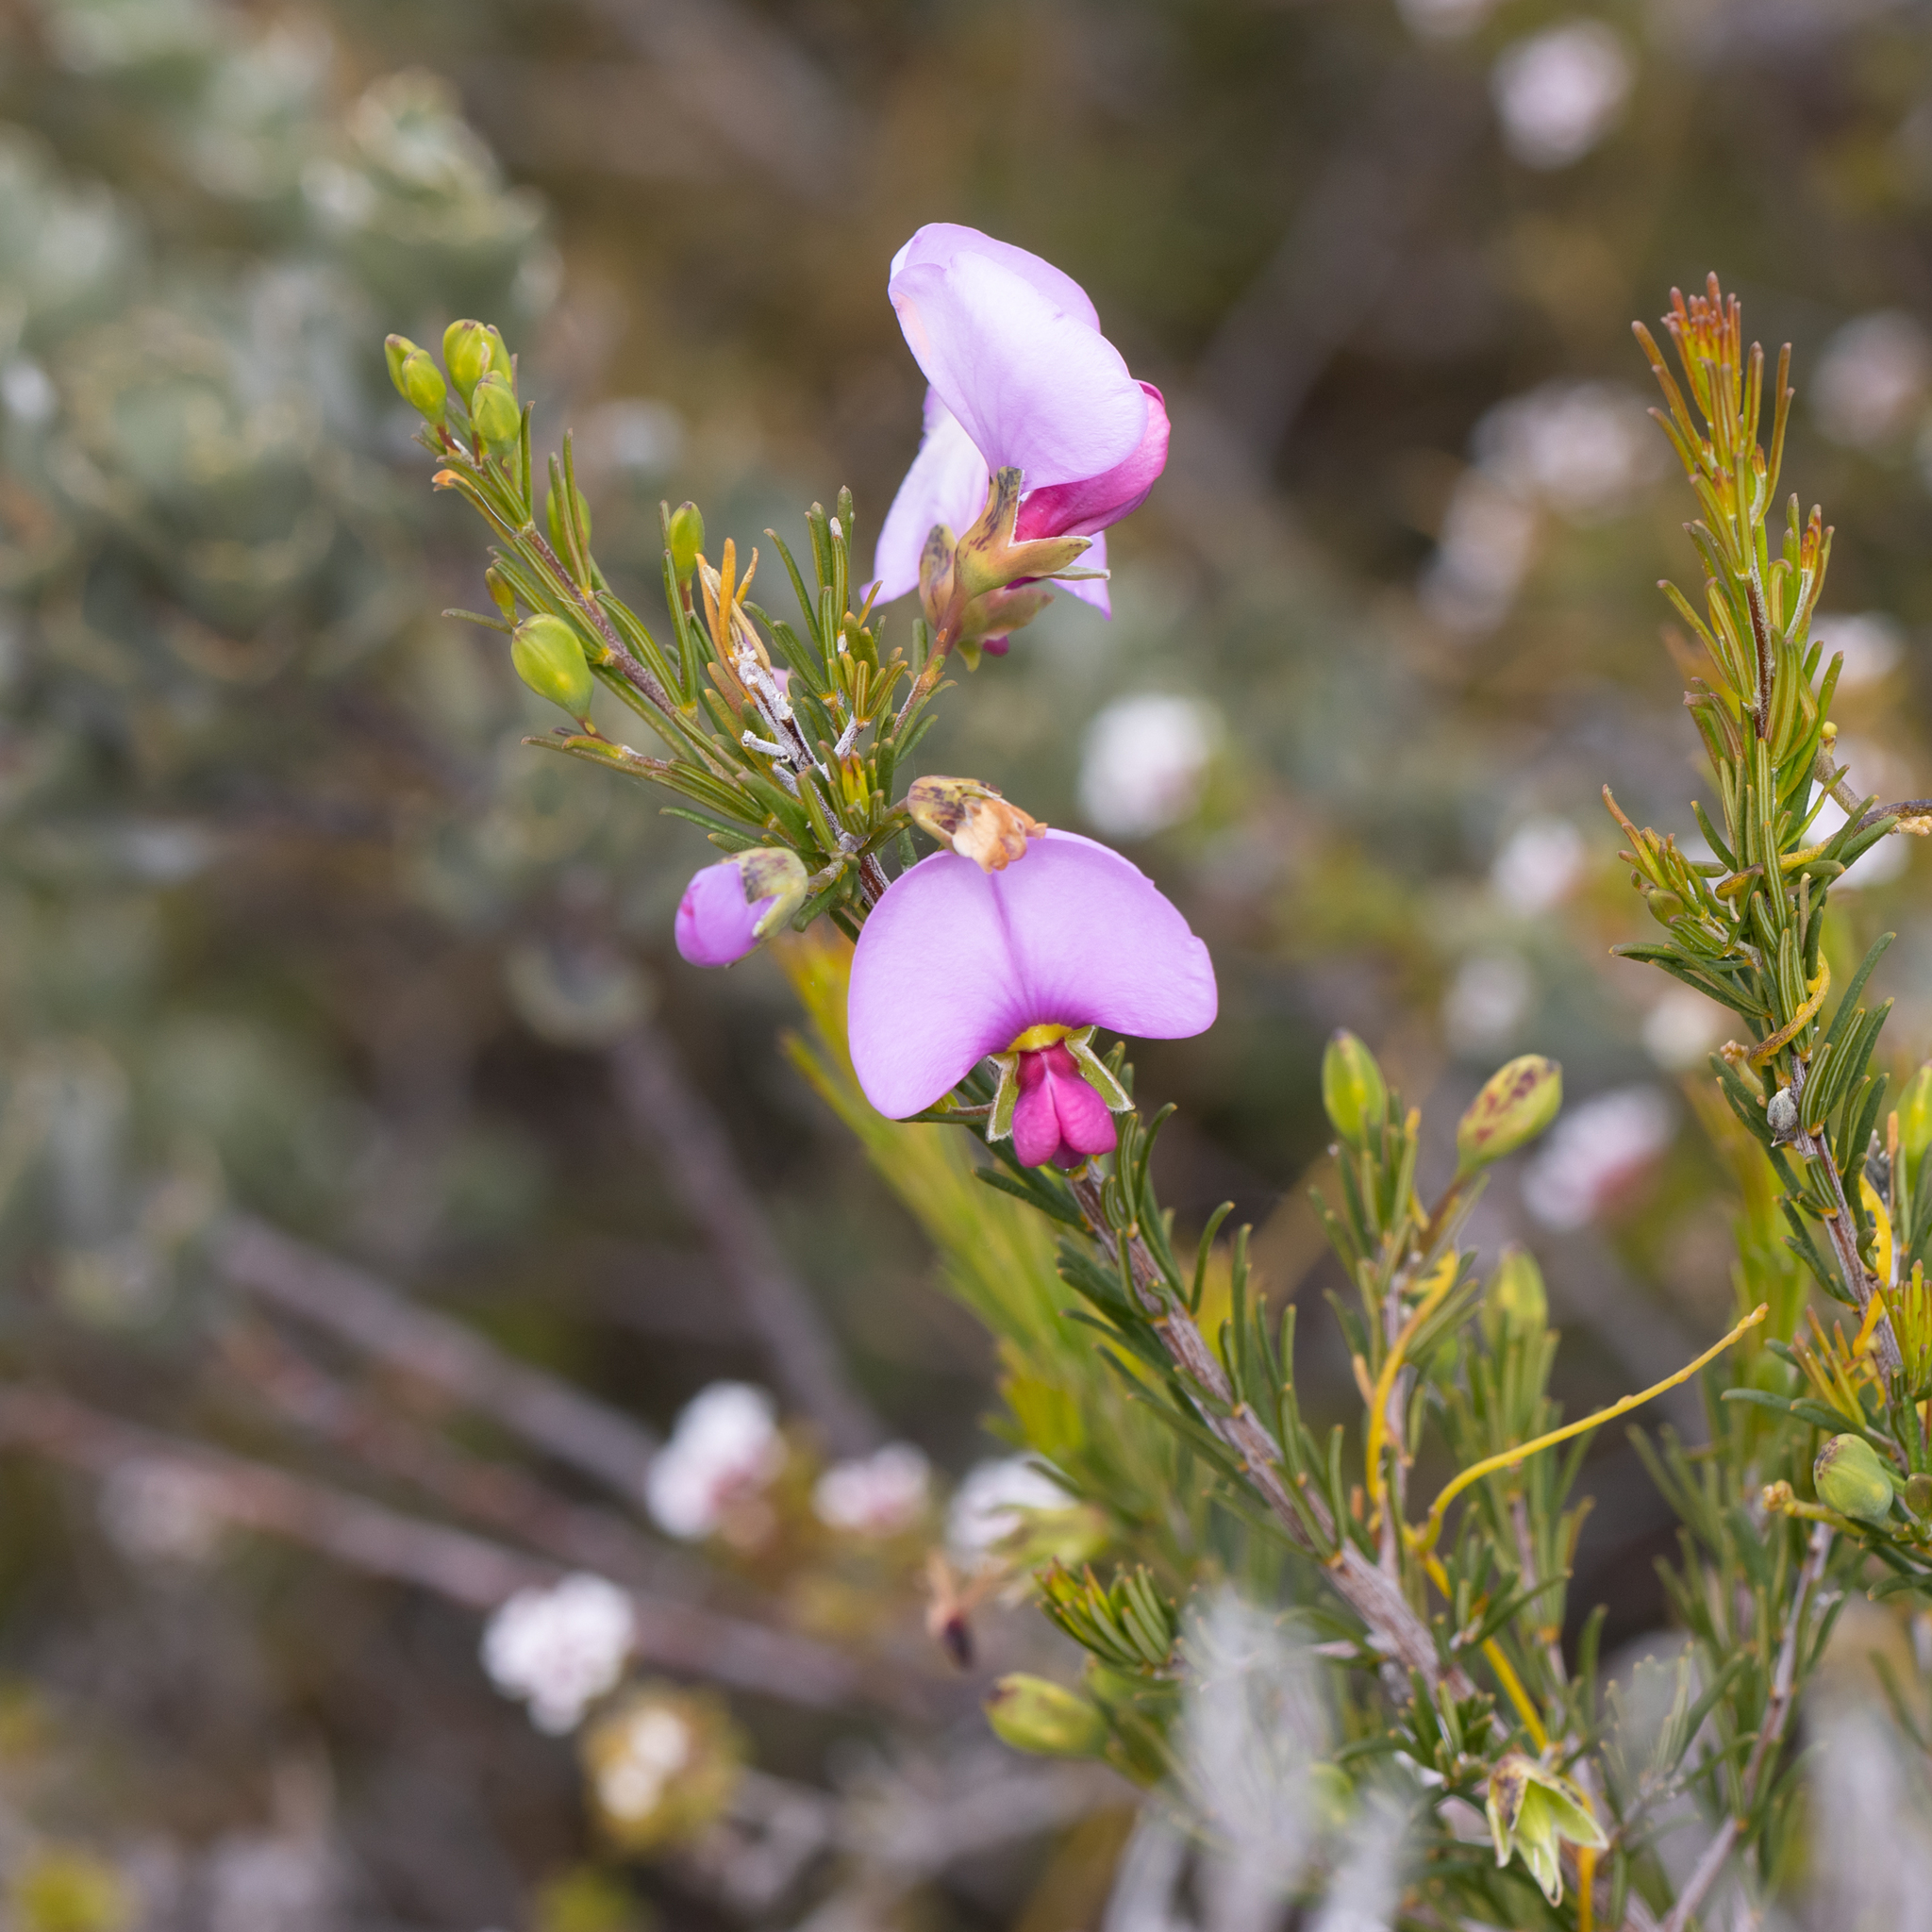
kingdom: Plantae
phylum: Tracheophyta
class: Magnoliopsida
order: Fabales
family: Fabaceae
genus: Gompholobium
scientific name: Gompholobium scabrum
